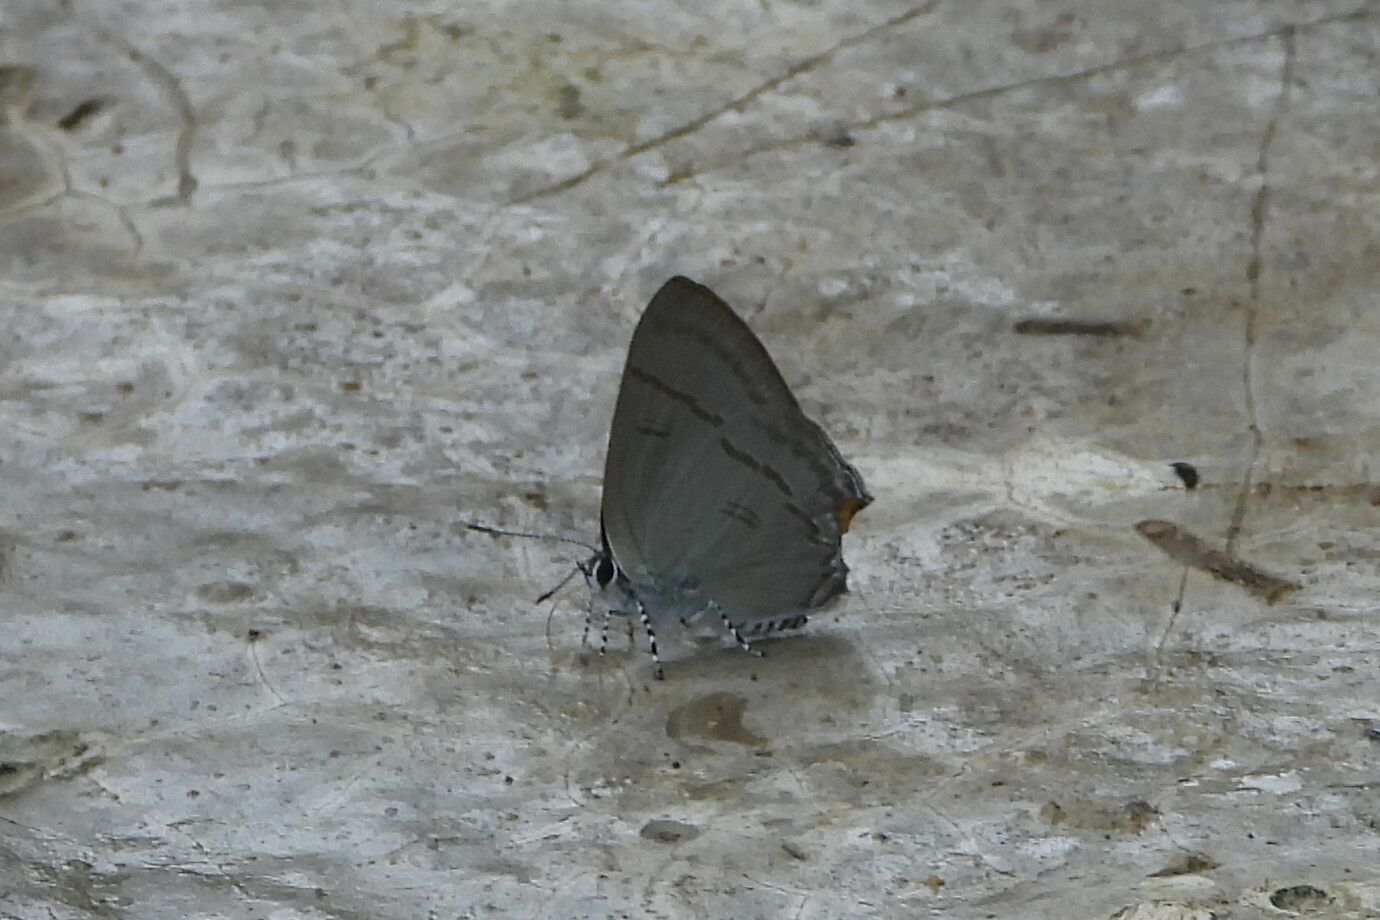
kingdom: Animalia
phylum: Arthropoda
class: Insecta
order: Lepidoptera
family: Lycaenidae
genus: Hypolycaena
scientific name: Hypolycaena erylus
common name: Common tit
